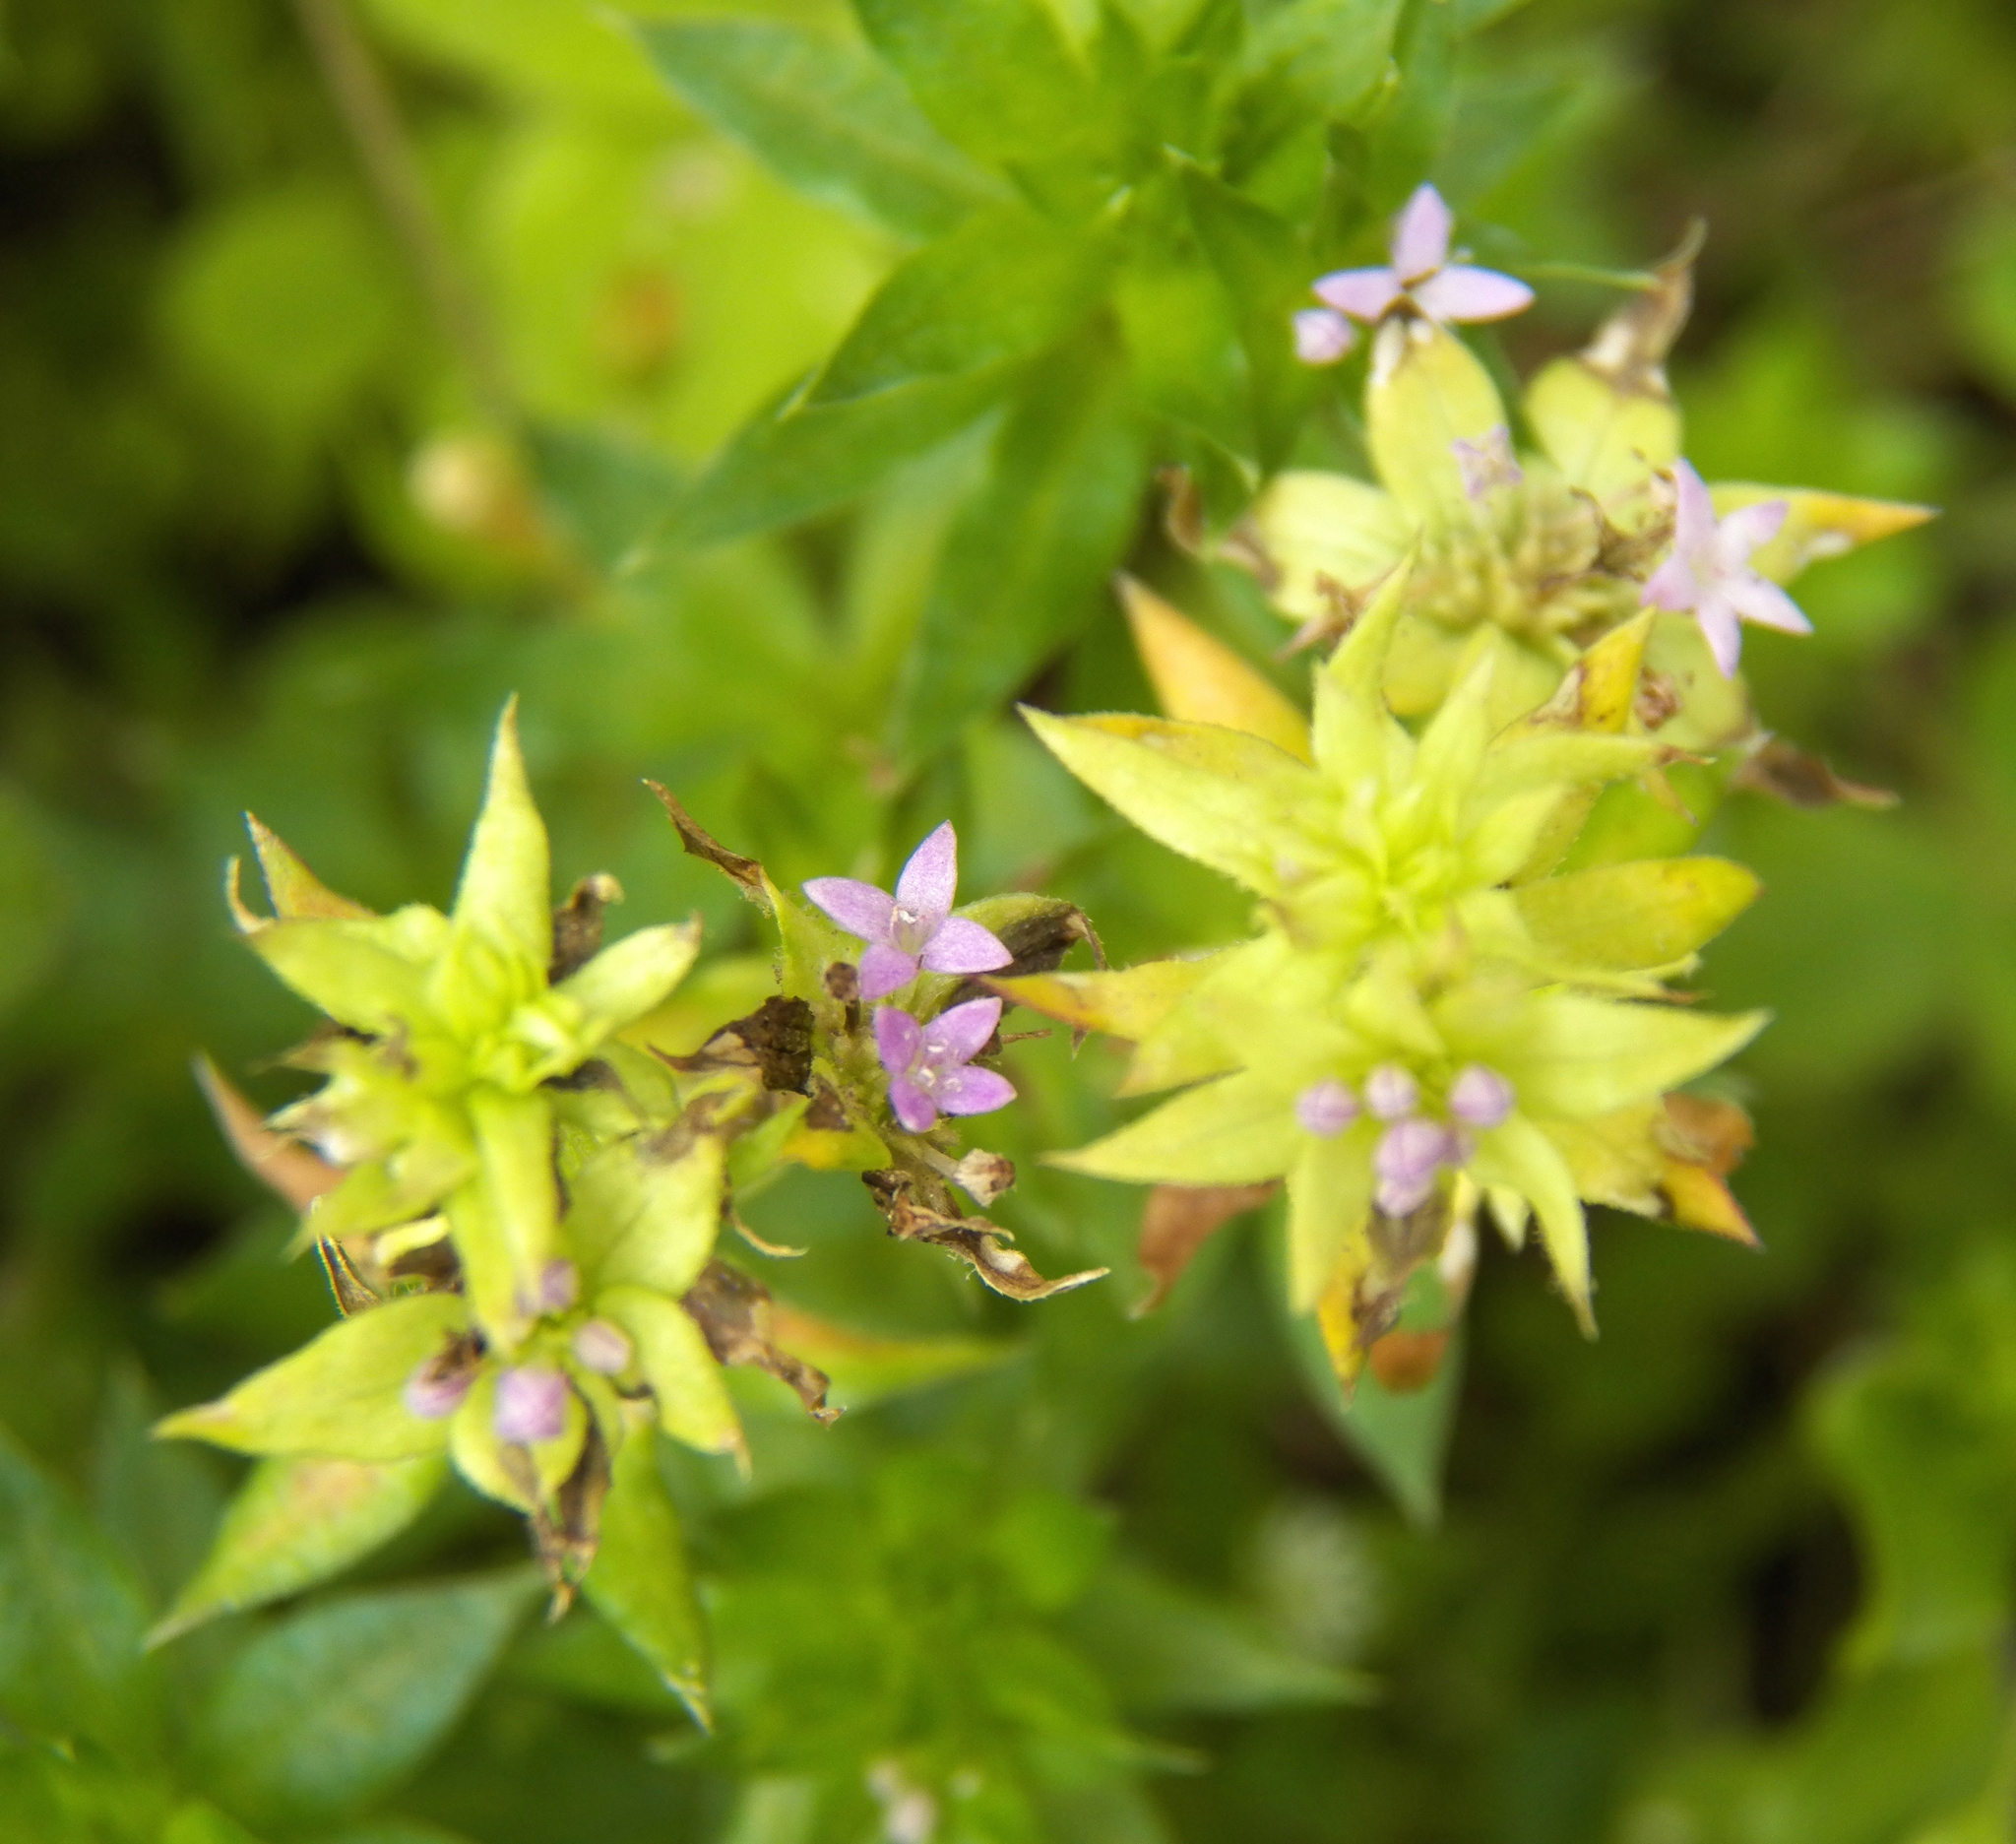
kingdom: Plantae
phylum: Tracheophyta
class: Magnoliopsida
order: Gentianales
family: Rubiaceae
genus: Sherardia
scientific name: Sherardia arvensis
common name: Field madder
